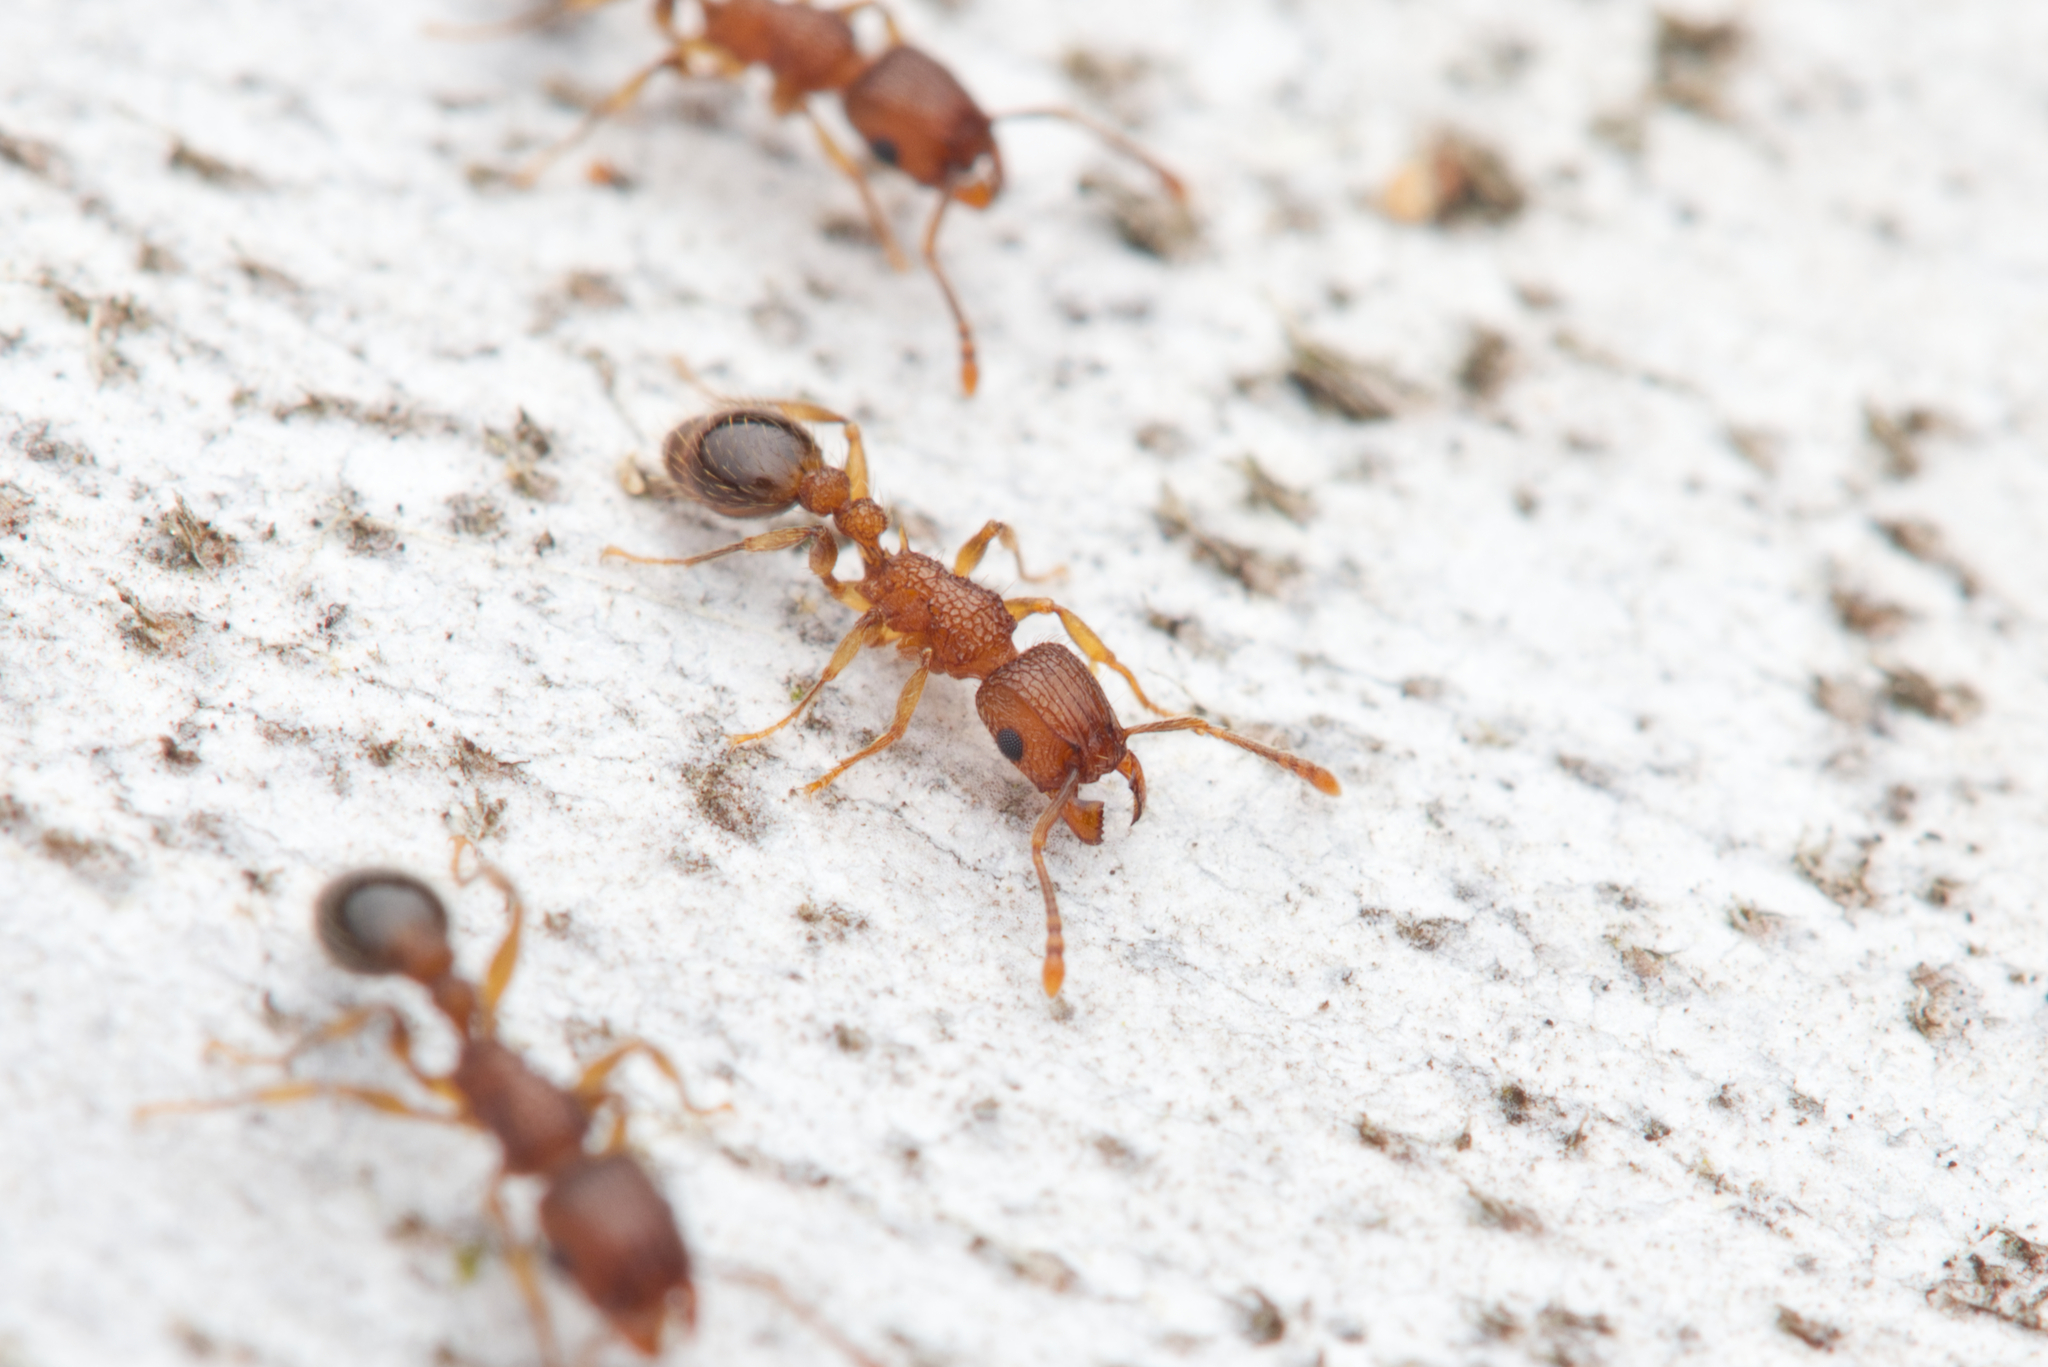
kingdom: Animalia
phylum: Arthropoda
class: Insecta
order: Hymenoptera
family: Formicidae
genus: Tetramorium
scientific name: Tetramorium bicarinatum
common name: Guinea ant
